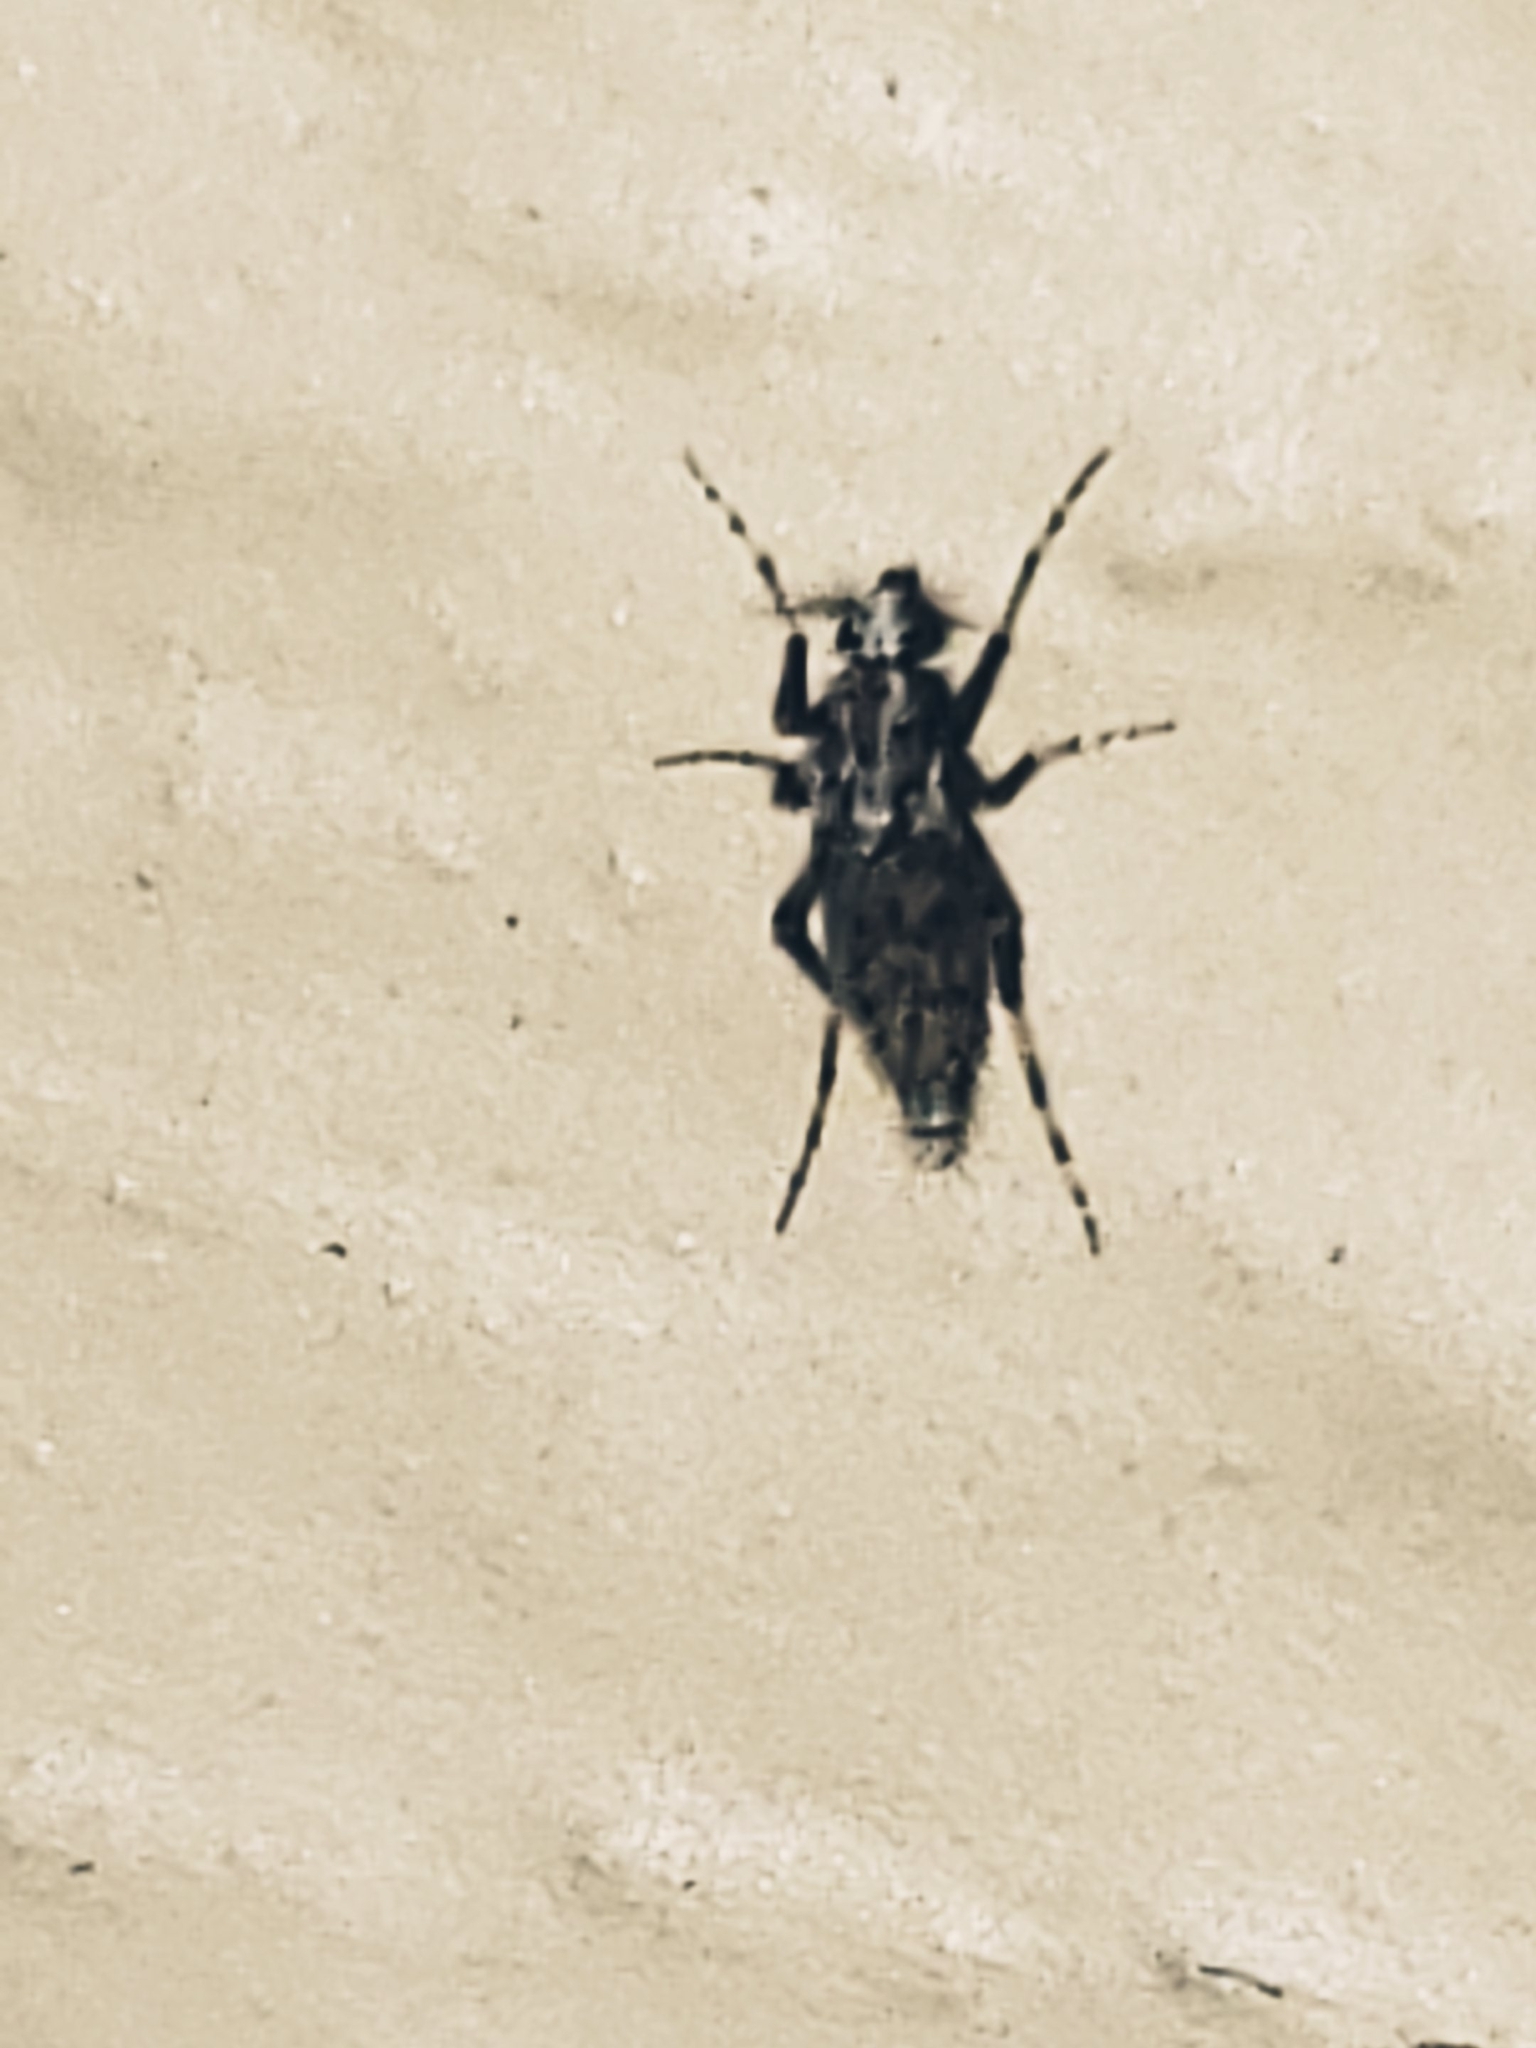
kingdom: Animalia
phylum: Arthropoda
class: Insecta
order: Diptera
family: Chaoboridae
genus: Chaoborus
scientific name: Chaoborus punctipennis
